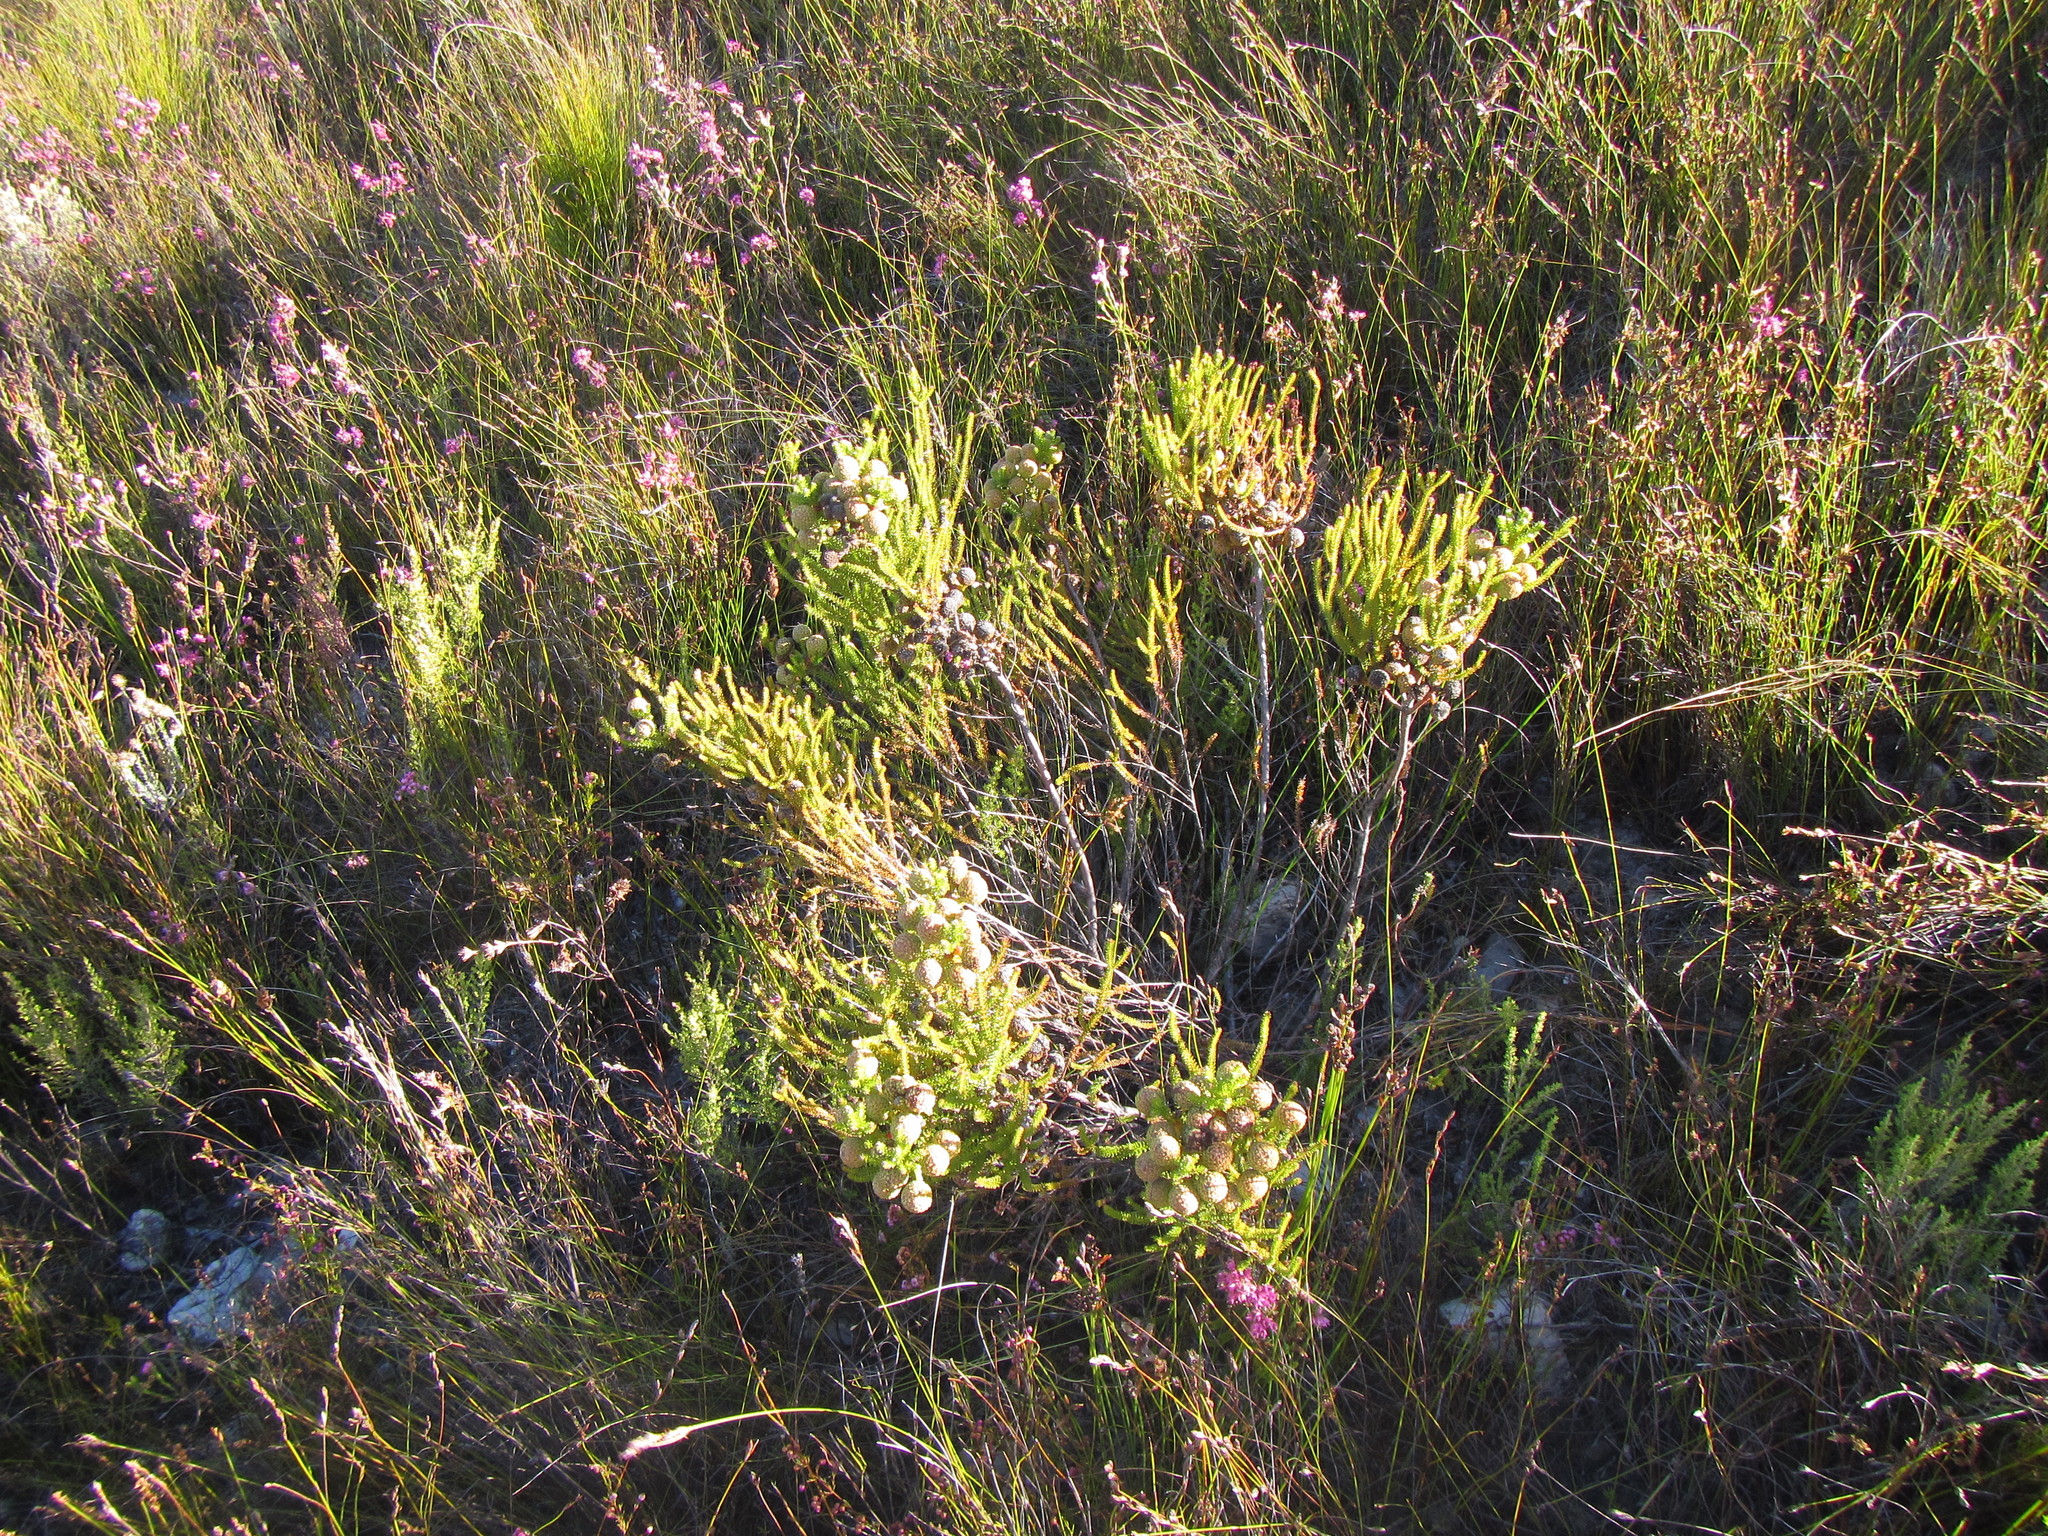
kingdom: Plantae
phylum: Tracheophyta
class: Magnoliopsida
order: Bruniales
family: Bruniaceae
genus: Berzelia
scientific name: Berzelia abrotanoides
